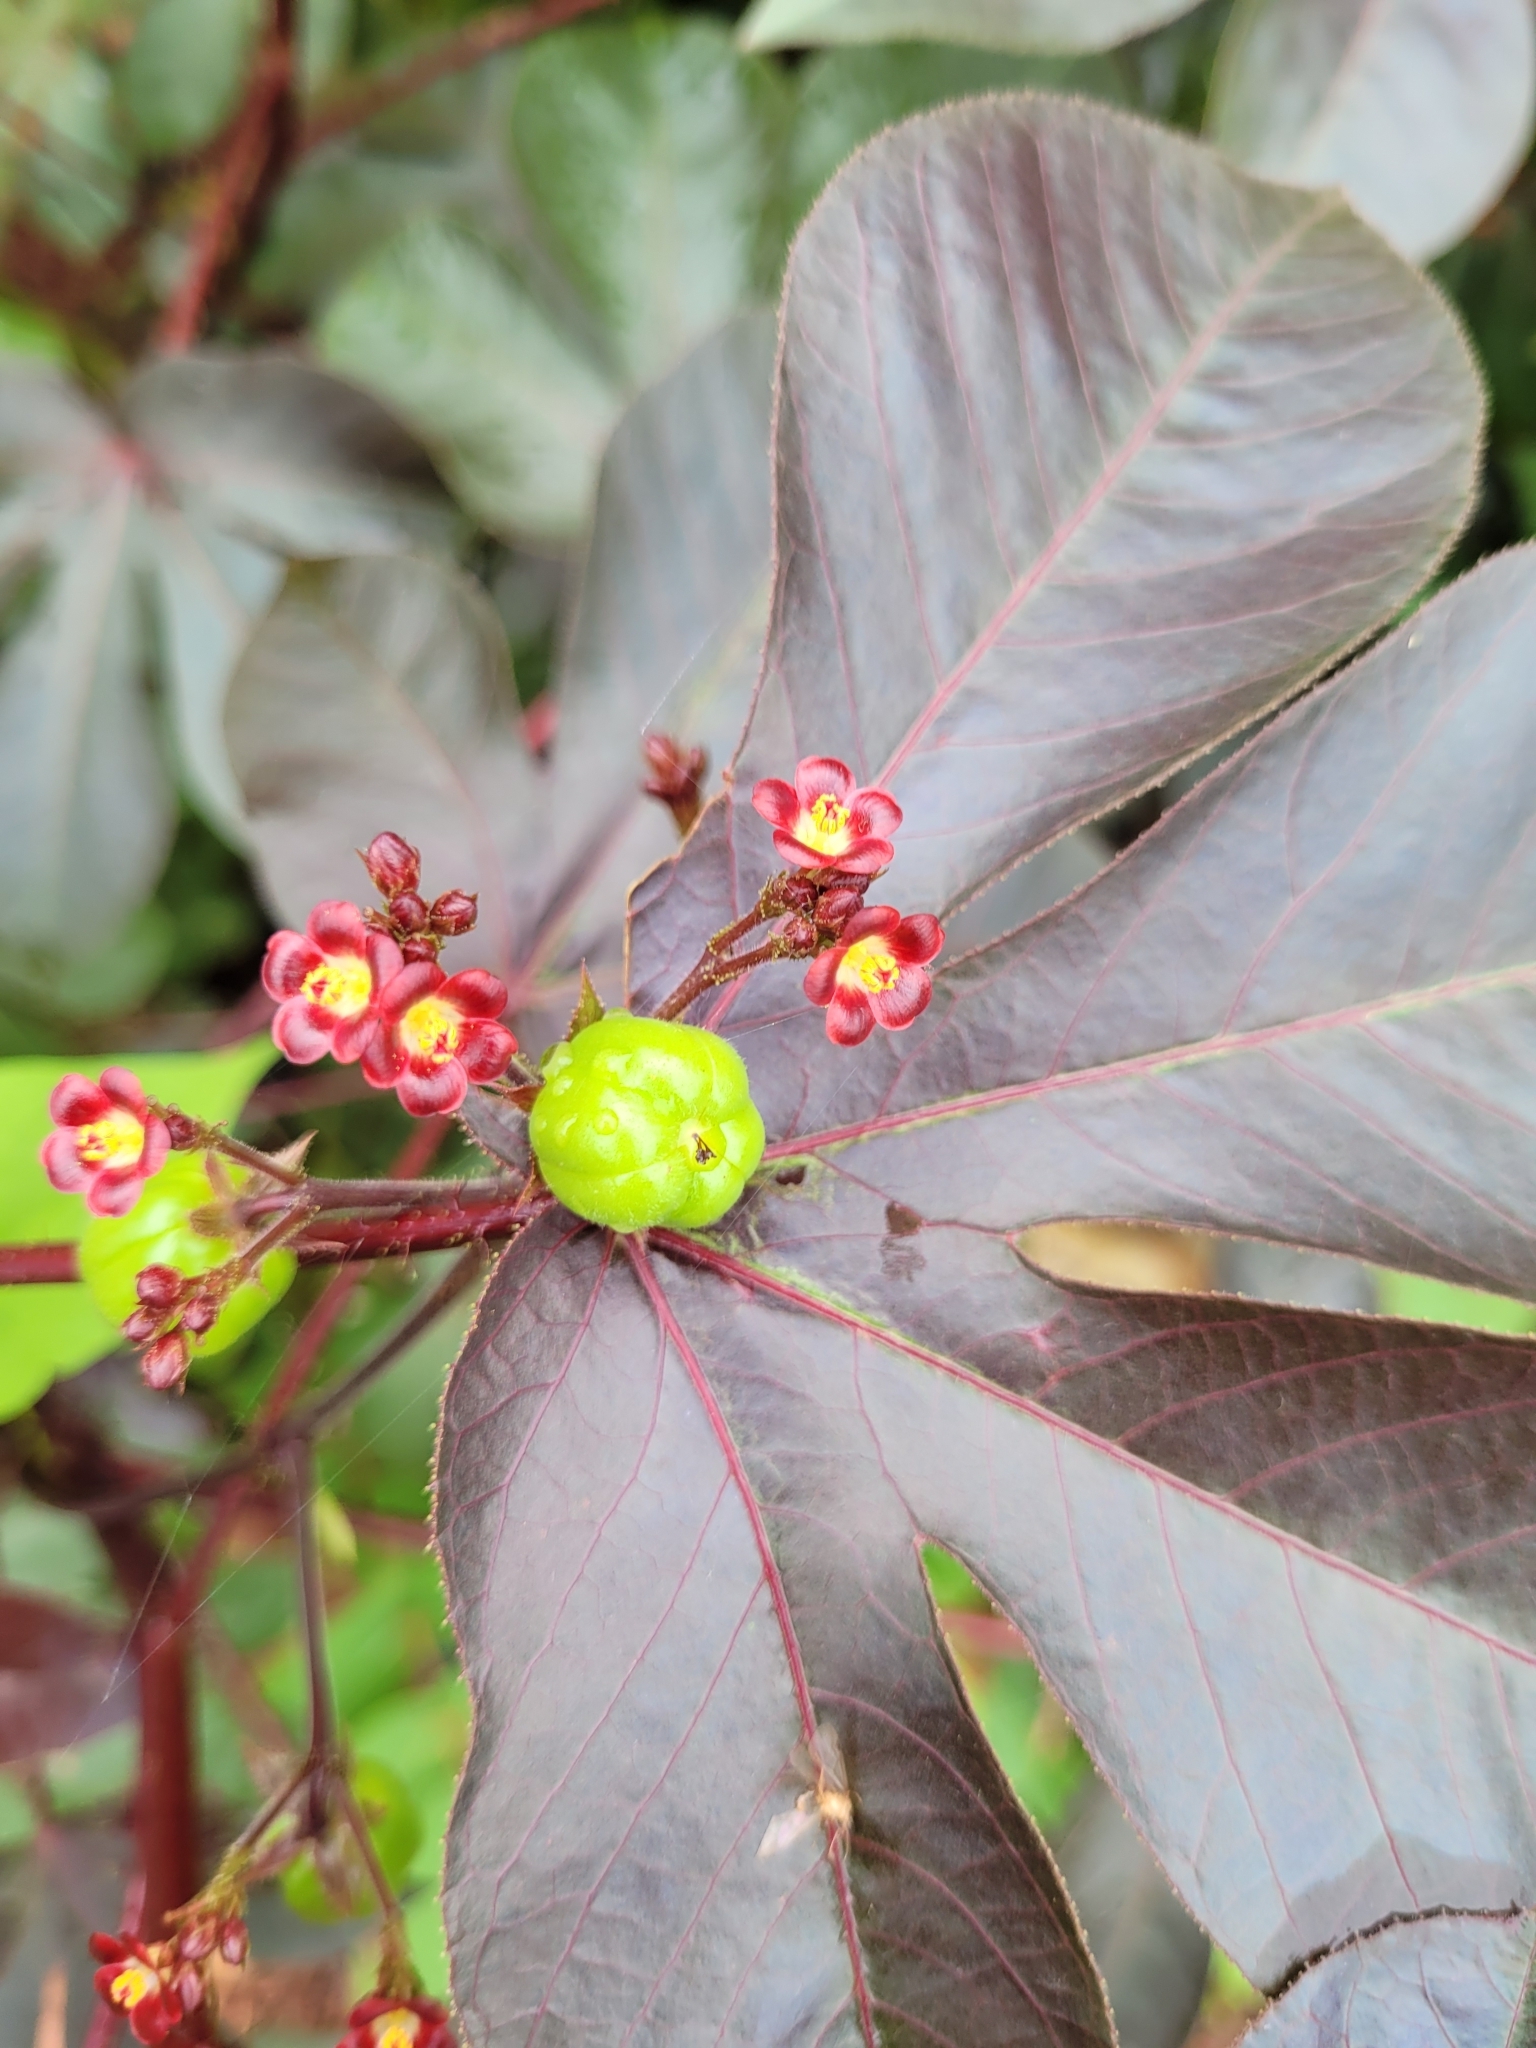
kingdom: Plantae
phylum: Tracheophyta
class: Magnoliopsida
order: Malpighiales
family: Euphorbiaceae
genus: Jatropha
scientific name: Jatropha gossypiifolia
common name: Bellyache bush
